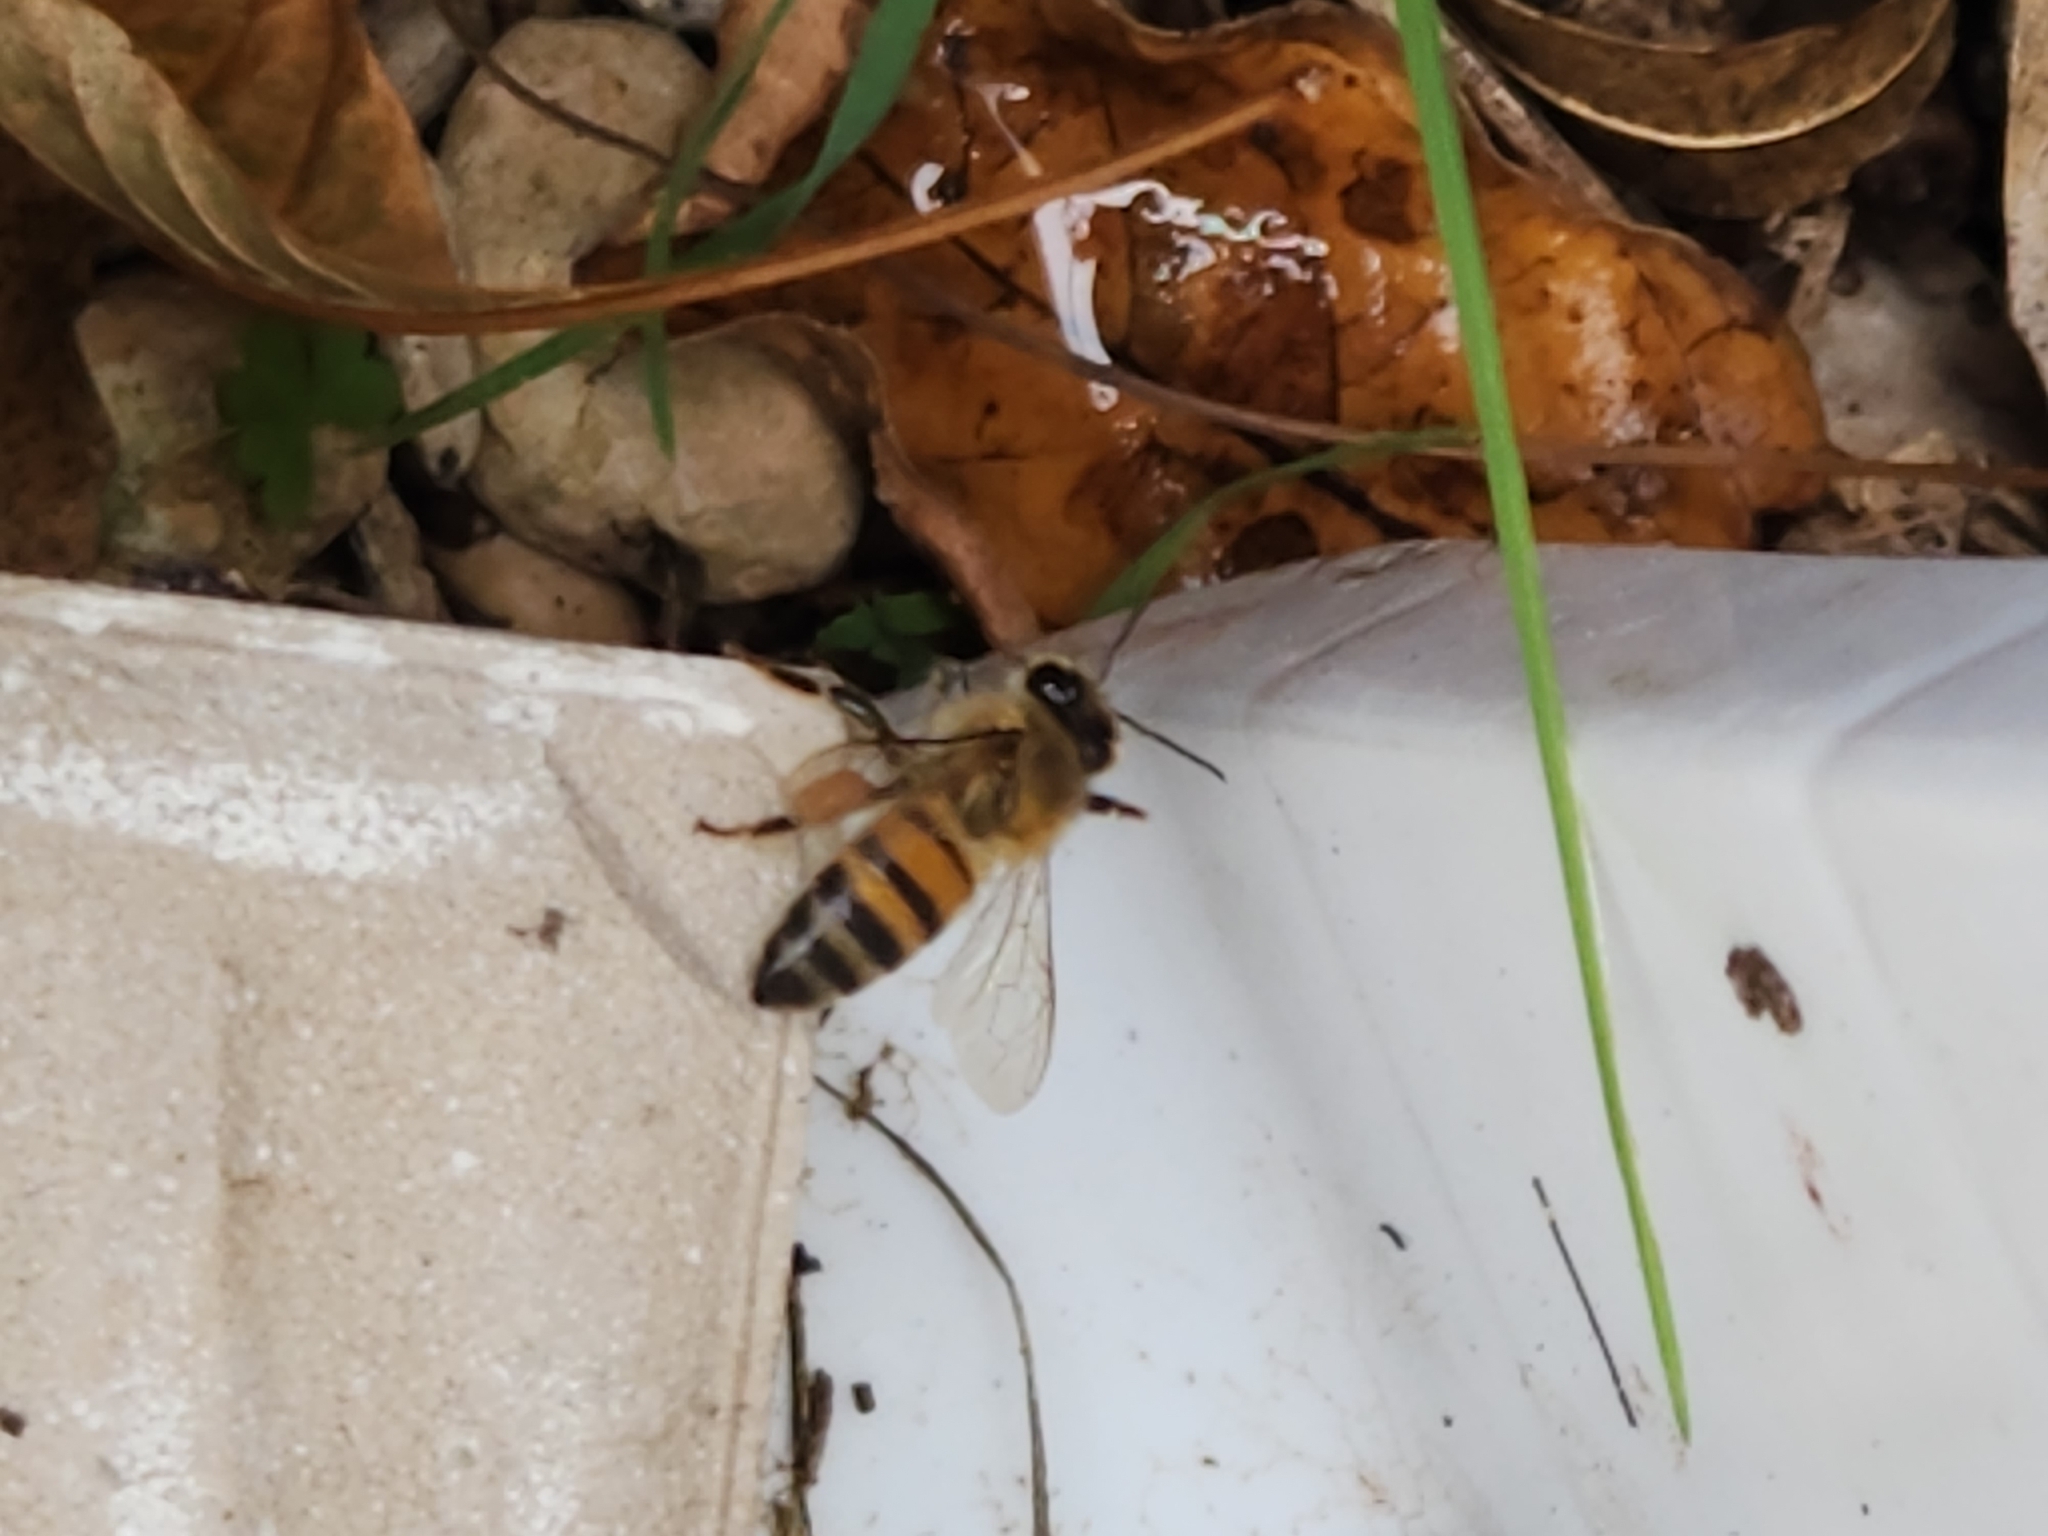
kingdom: Animalia
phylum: Arthropoda
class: Insecta
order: Hymenoptera
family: Apidae
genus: Apis
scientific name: Apis mellifera
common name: Honey bee
